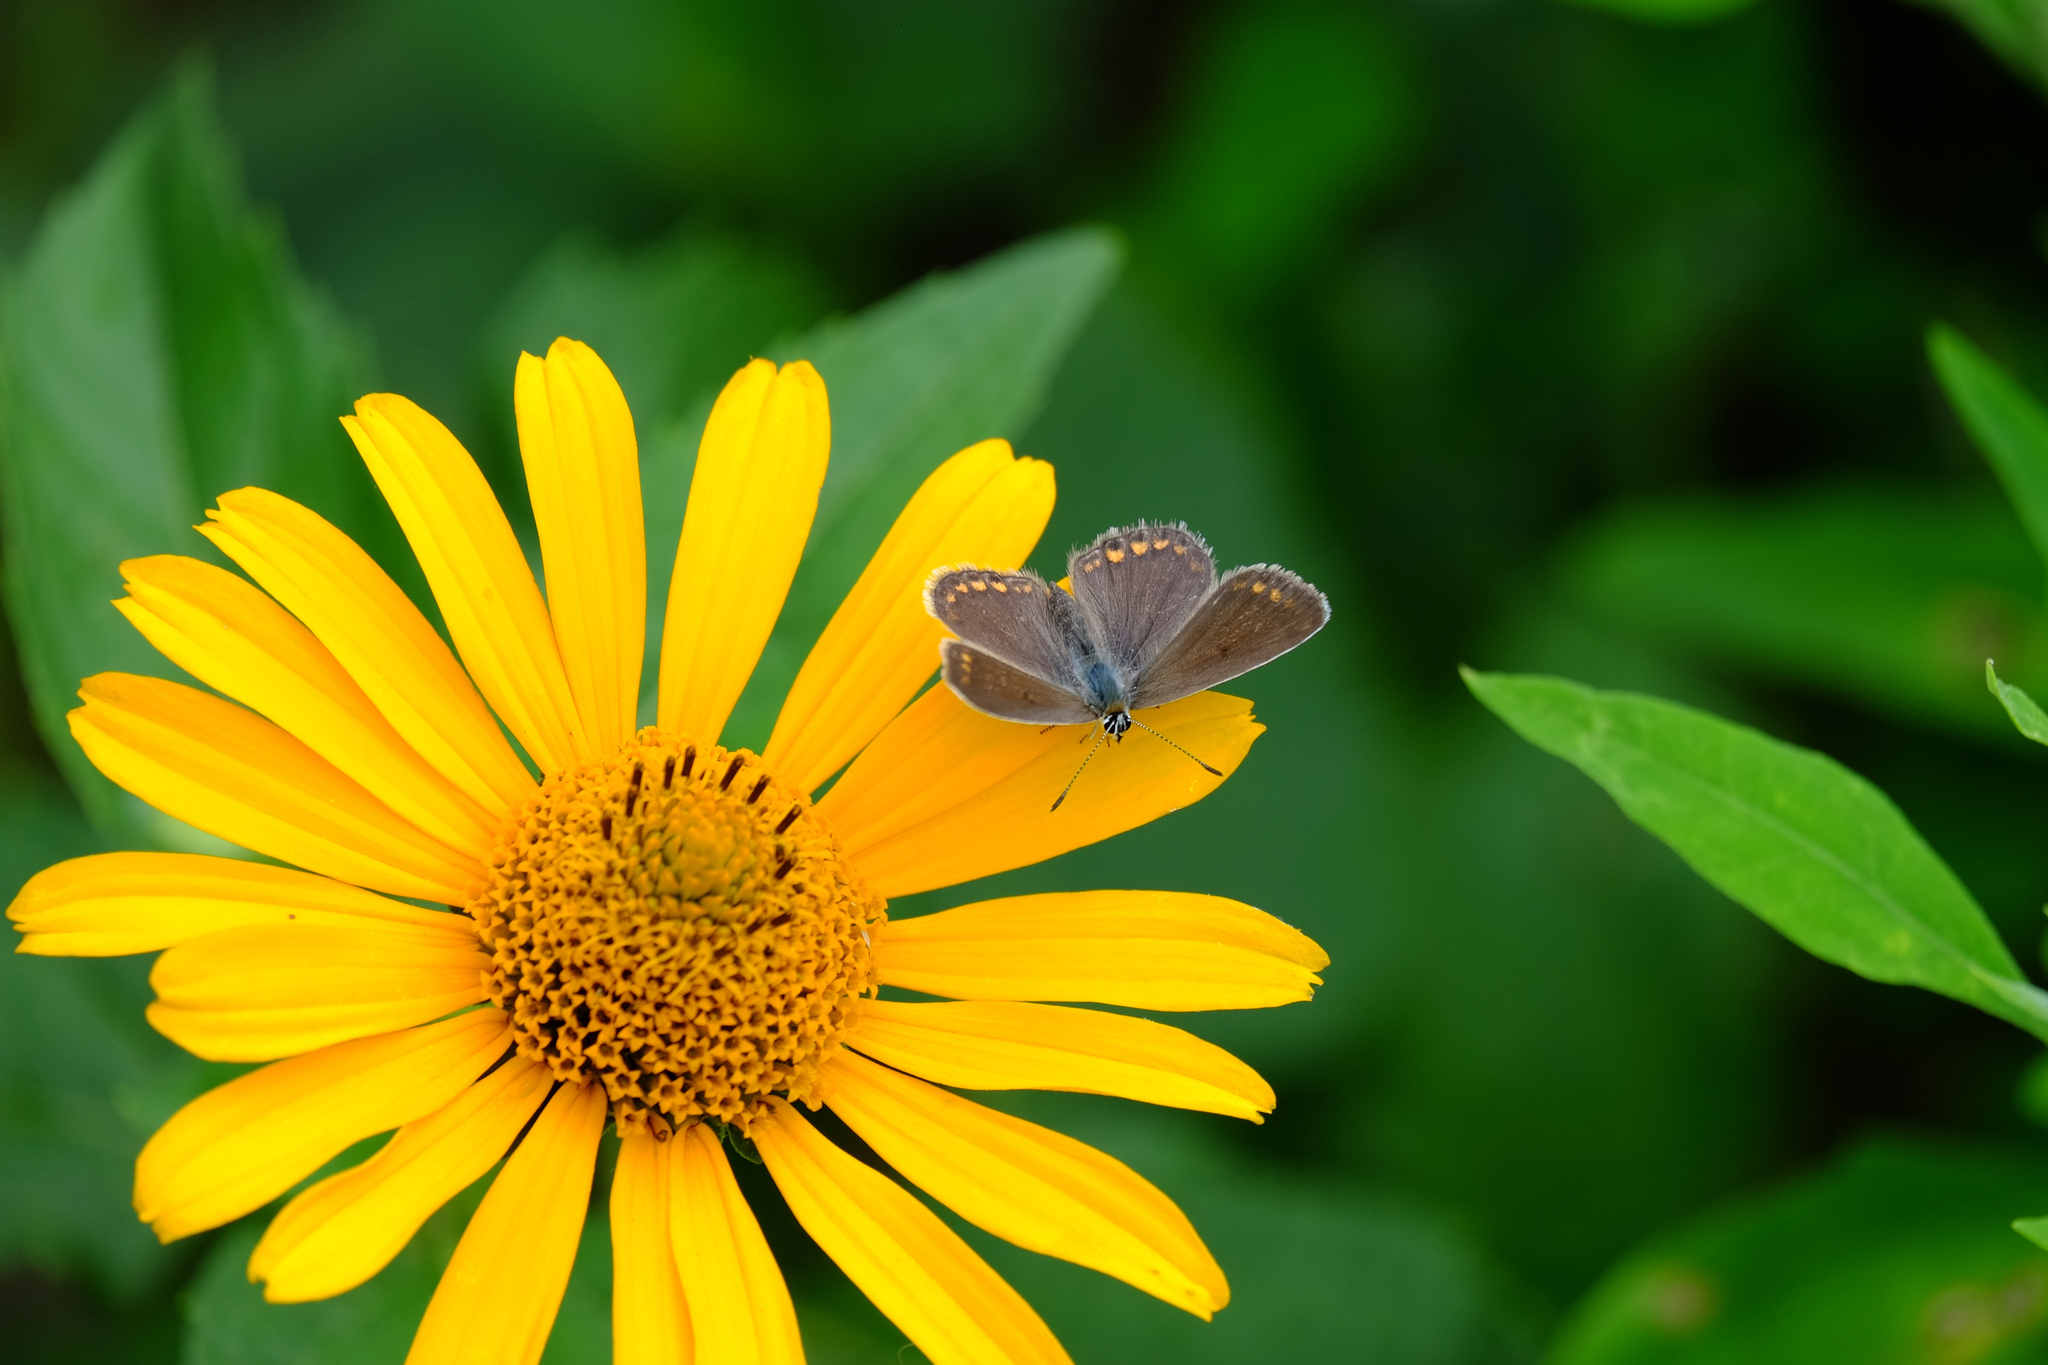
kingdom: Animalia
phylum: Arthropoda
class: Insecta
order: Lepidoptera
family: Lycaenidae
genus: Polyommatus
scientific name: Polyommatus icarus
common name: Common blue
